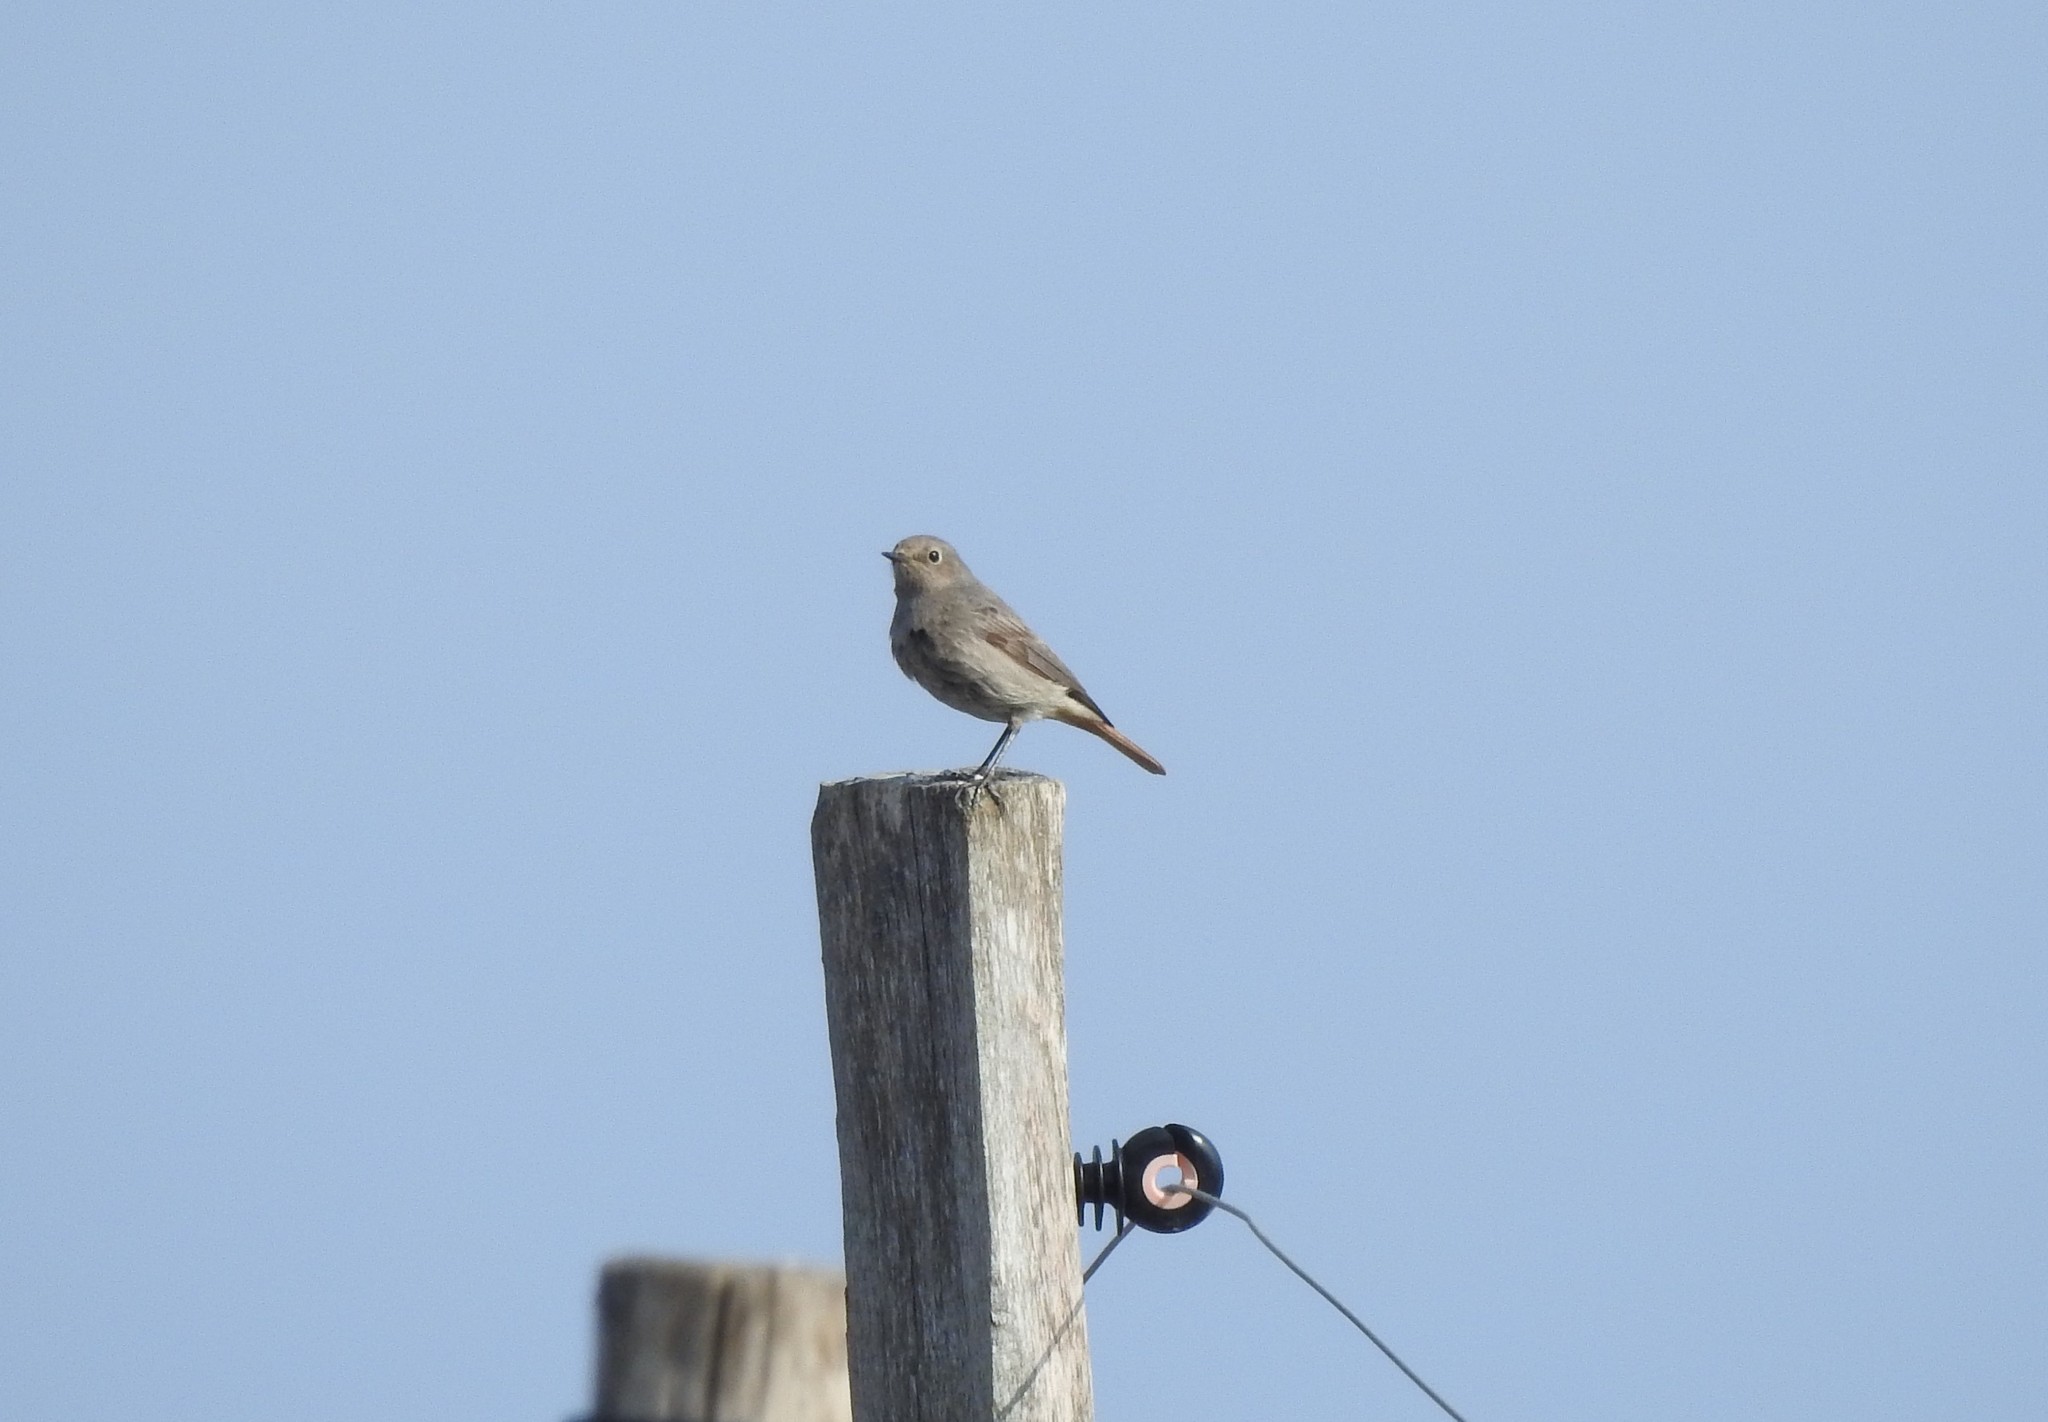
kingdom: Animalia
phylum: Chordata
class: Aves
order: Passeriformes
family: Muscicapidae
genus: Phoenicurus
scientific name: Phoenicurus ochruros
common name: Black redstart
